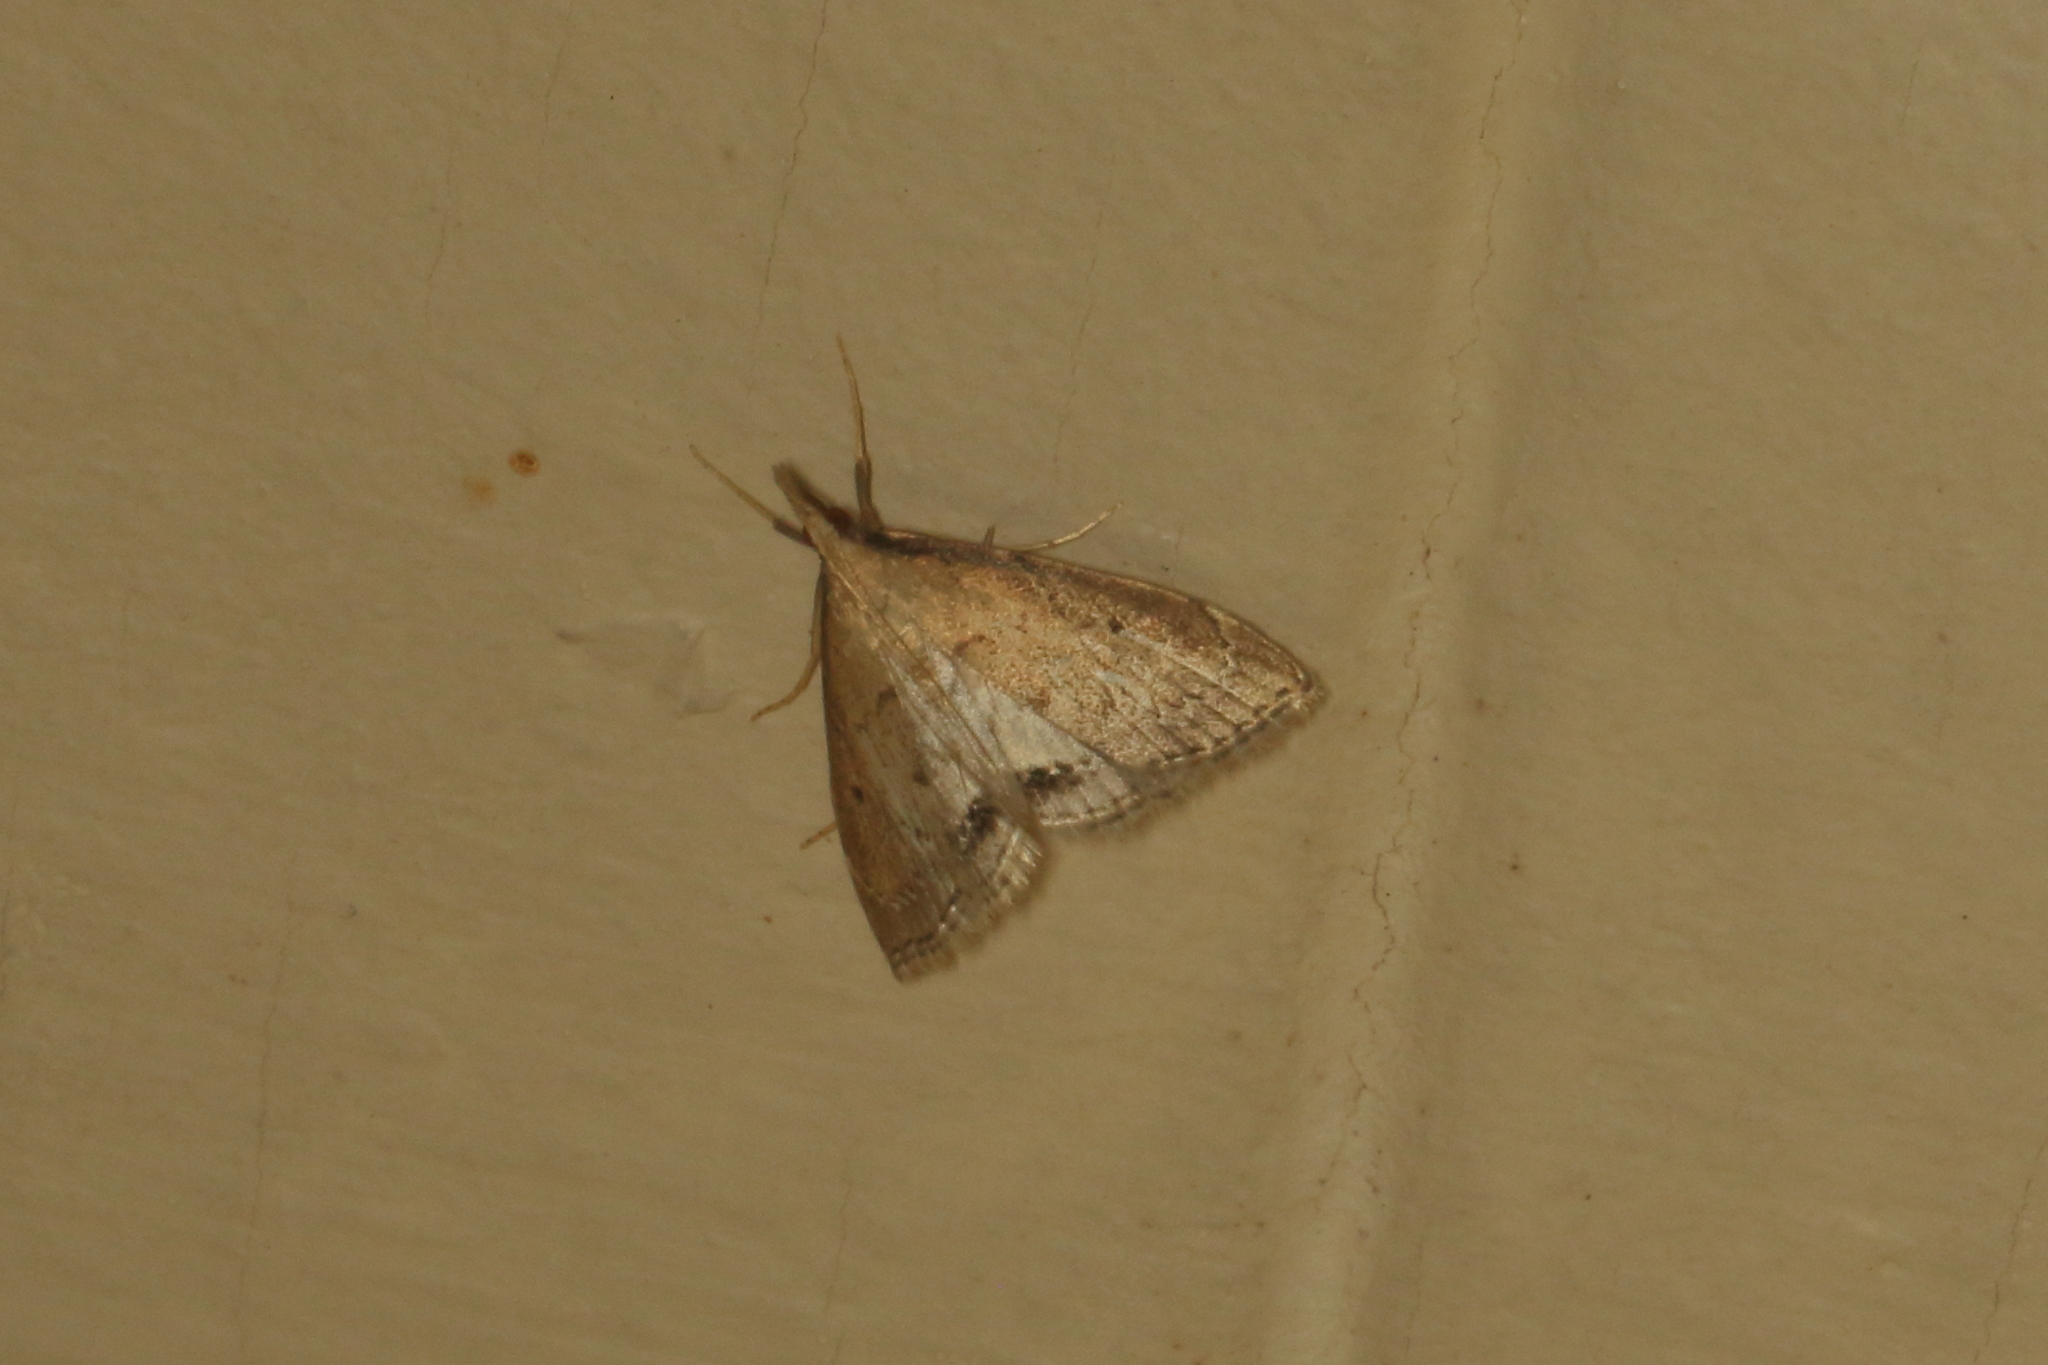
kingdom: Animalia
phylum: Arthropoda
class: Insecta
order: Lepidoptera
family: Crambidae
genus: Clepsicosma
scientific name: Clepsicosma iridia
